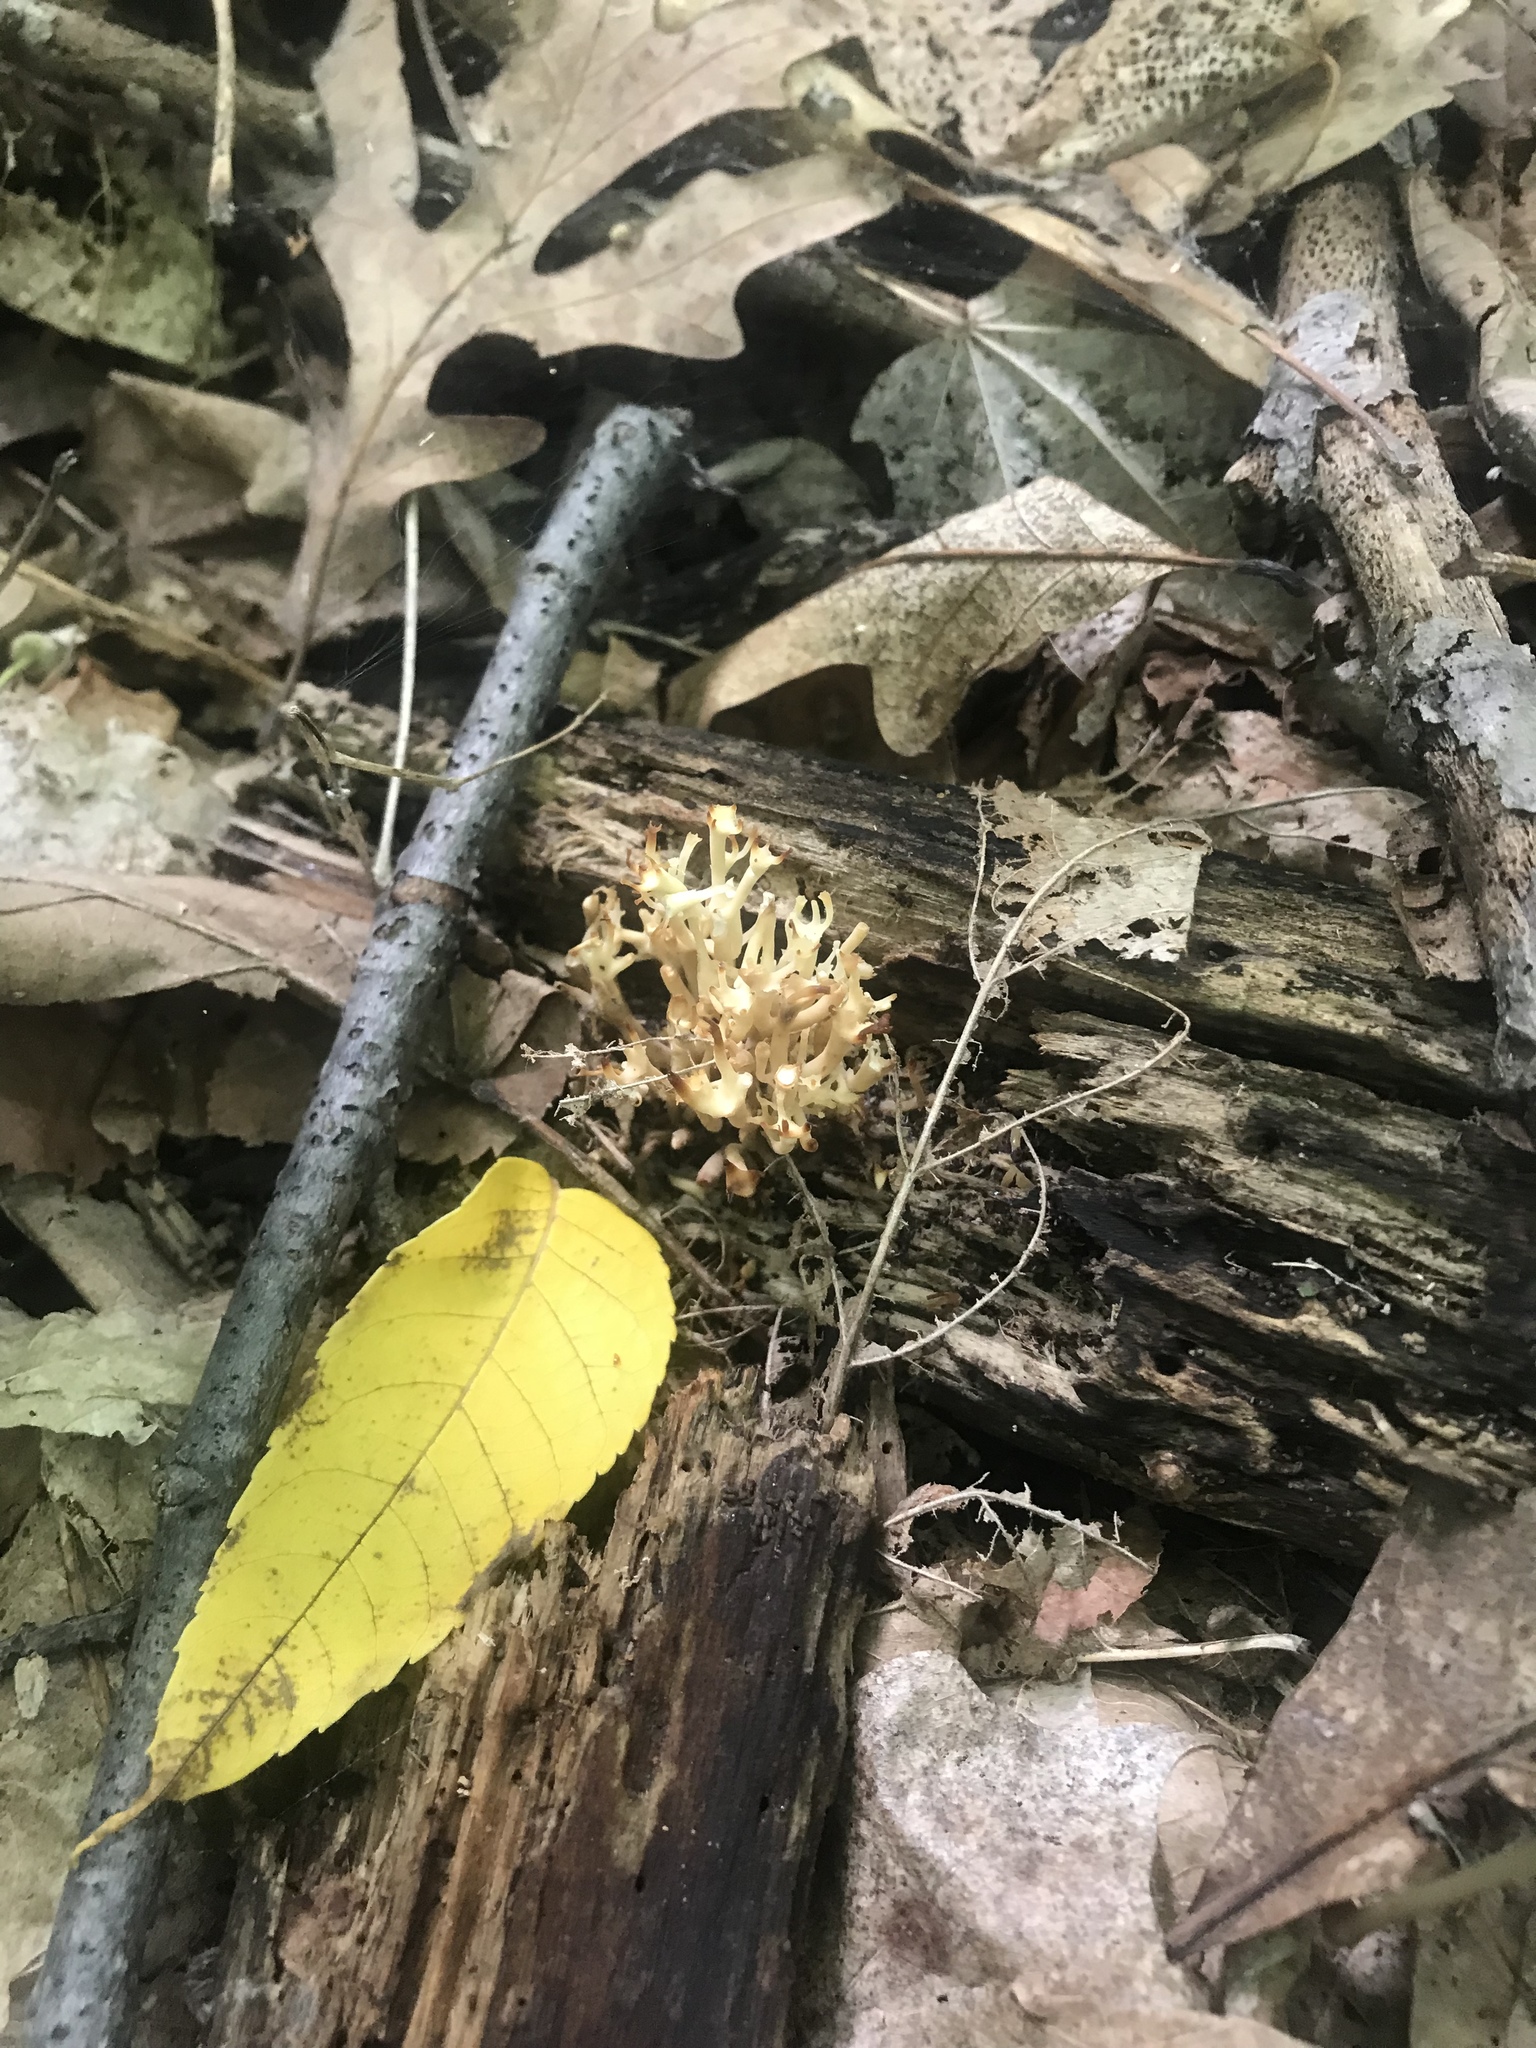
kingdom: Fungi
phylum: Basidiomycota
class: Agaricomycetes
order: Russulales
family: Auriscalpiaceae
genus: Artomyces
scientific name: Artomyces pyxidatus
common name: Crown-tipped coral fungus
